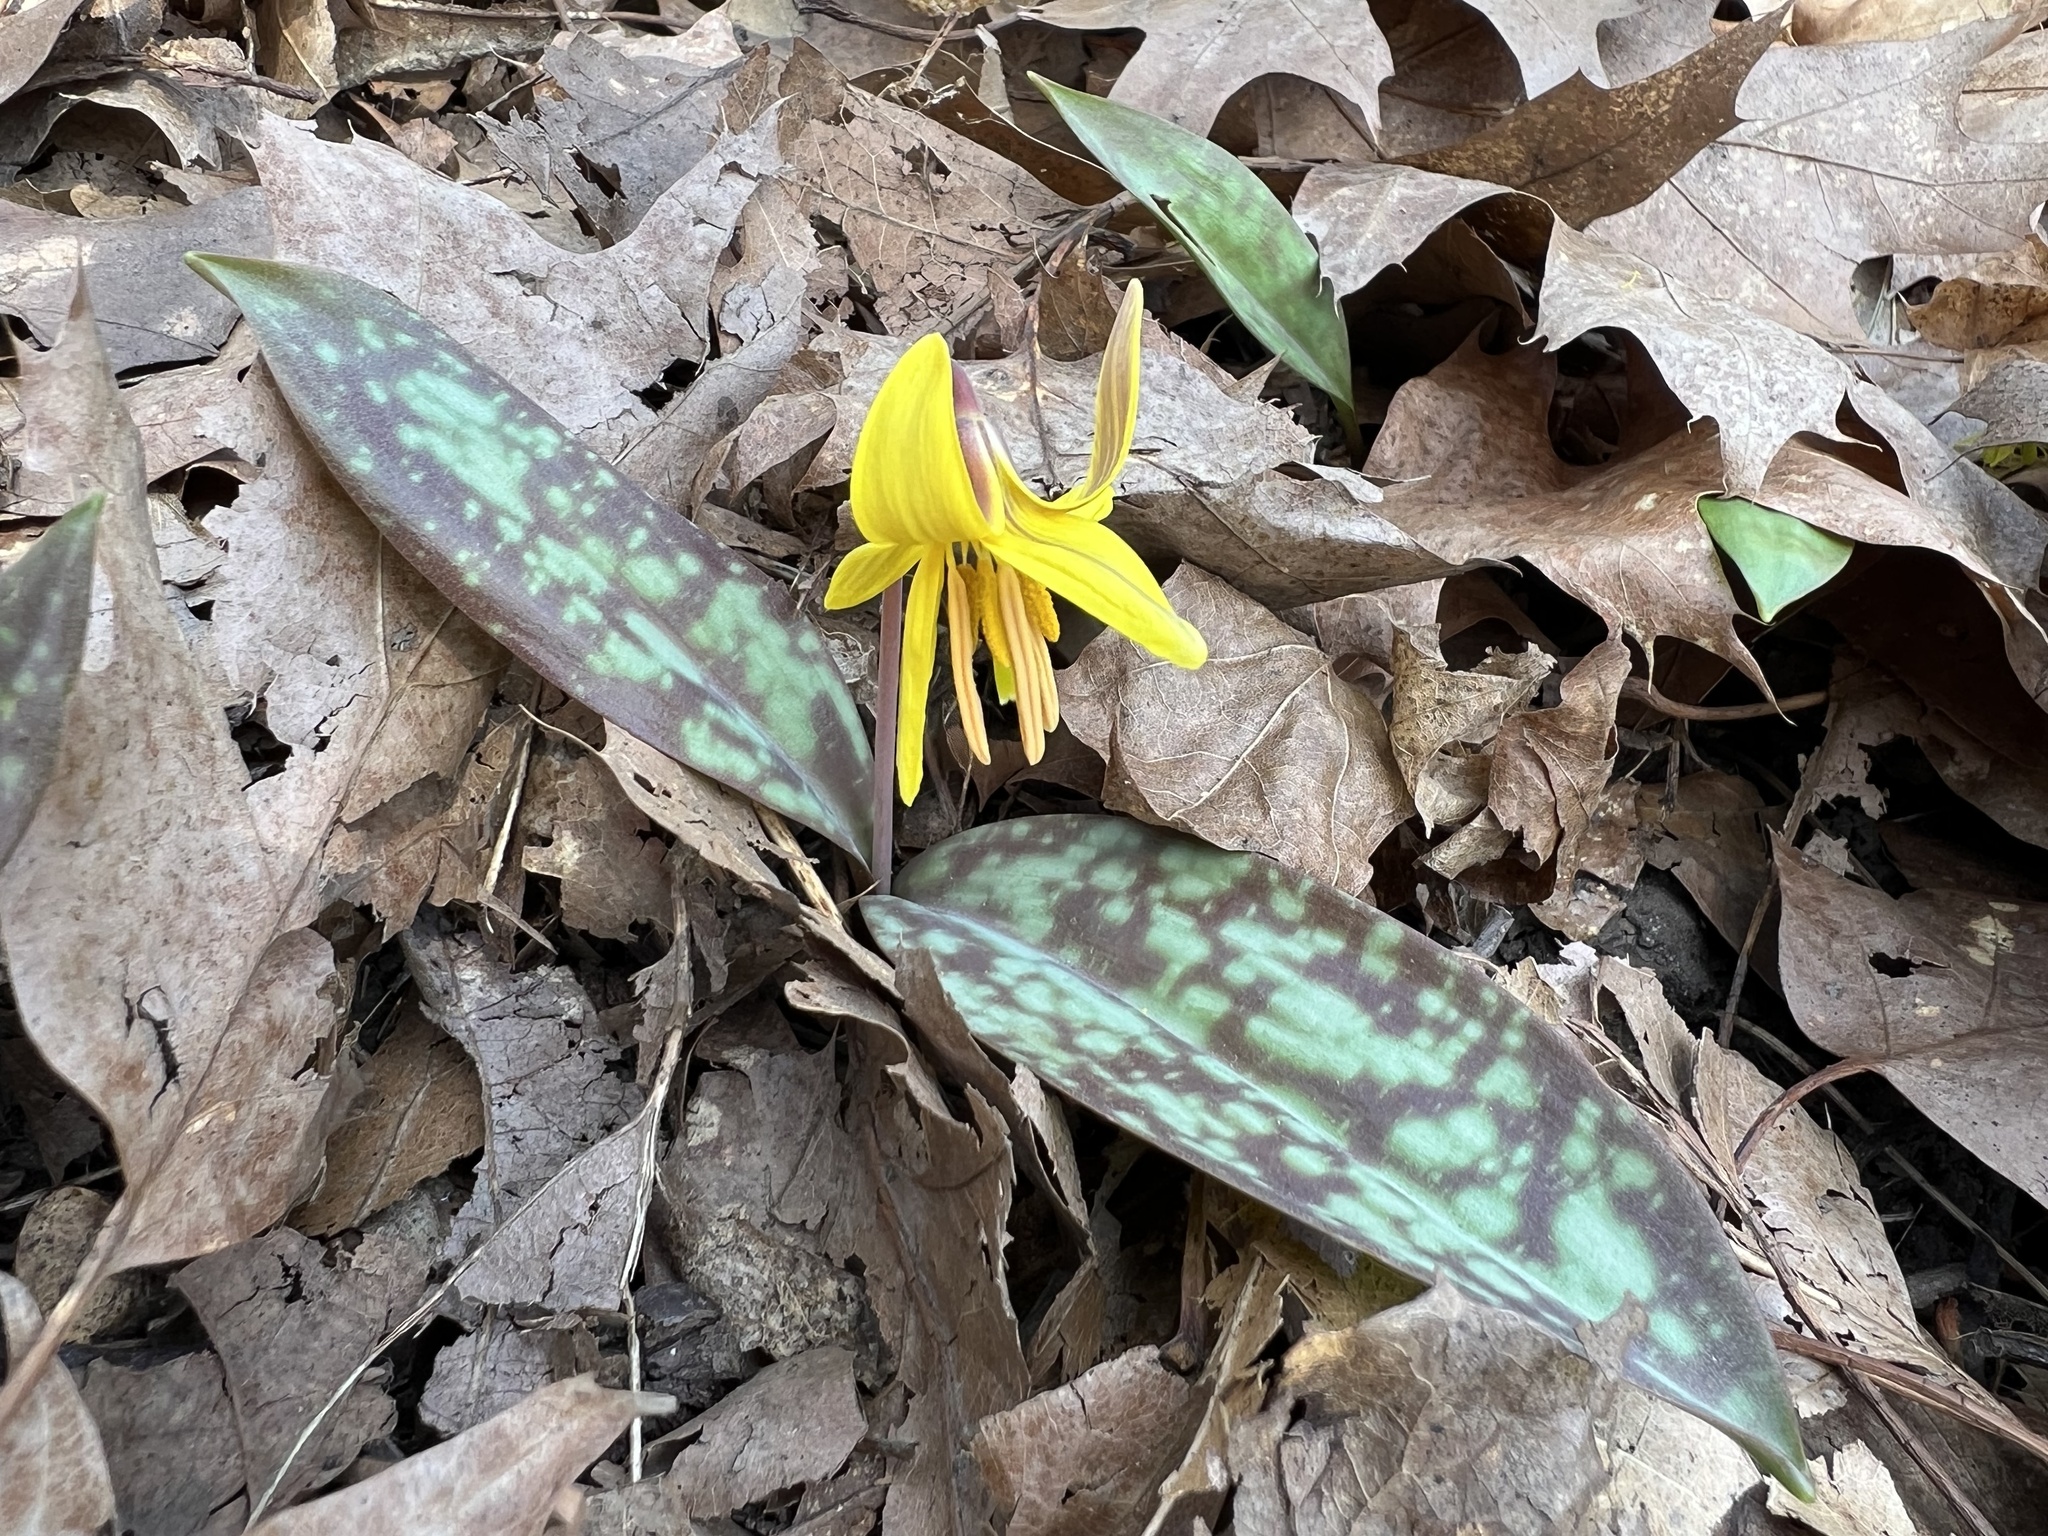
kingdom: Plantae
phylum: Tracheophyta
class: Liliopsida
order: Liliales
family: Liliaceae
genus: Erythronium
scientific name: Erythronium americanum
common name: Yellow adder's-tongue
